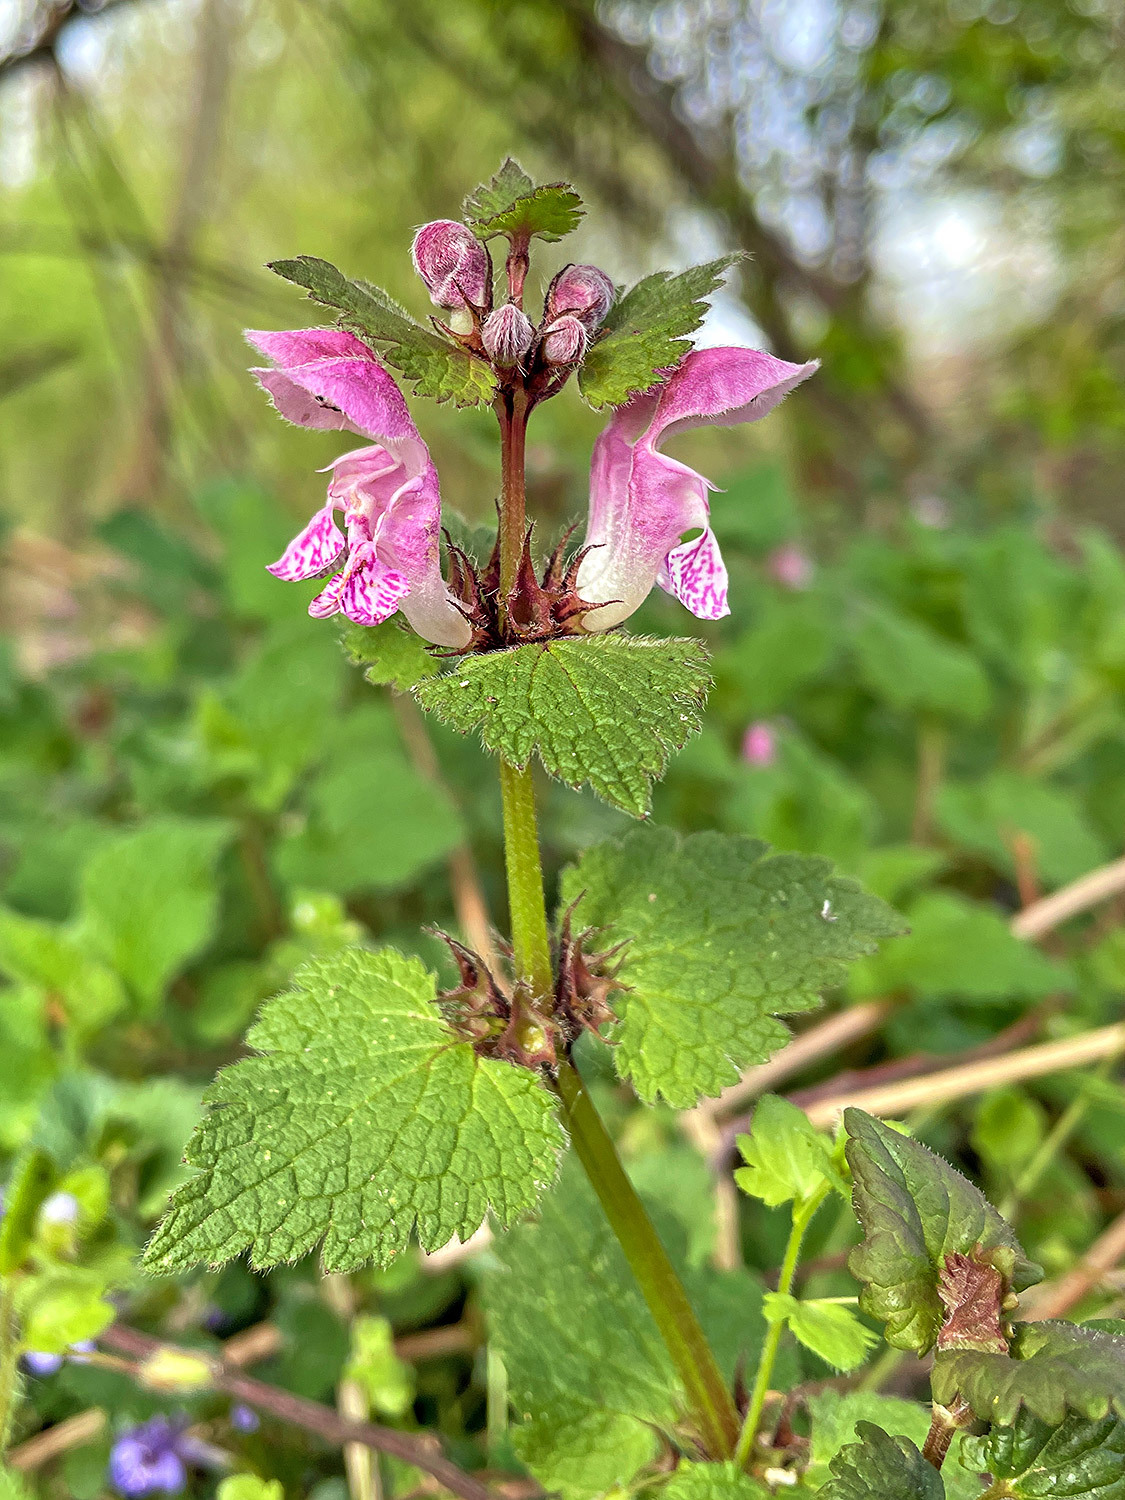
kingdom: Plantae
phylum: Tracheophyta
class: Magnoliopsida
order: Lamiales
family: Lamiaceae
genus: Lamium
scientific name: Lamium maculatum
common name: Spotted dead-nettle
